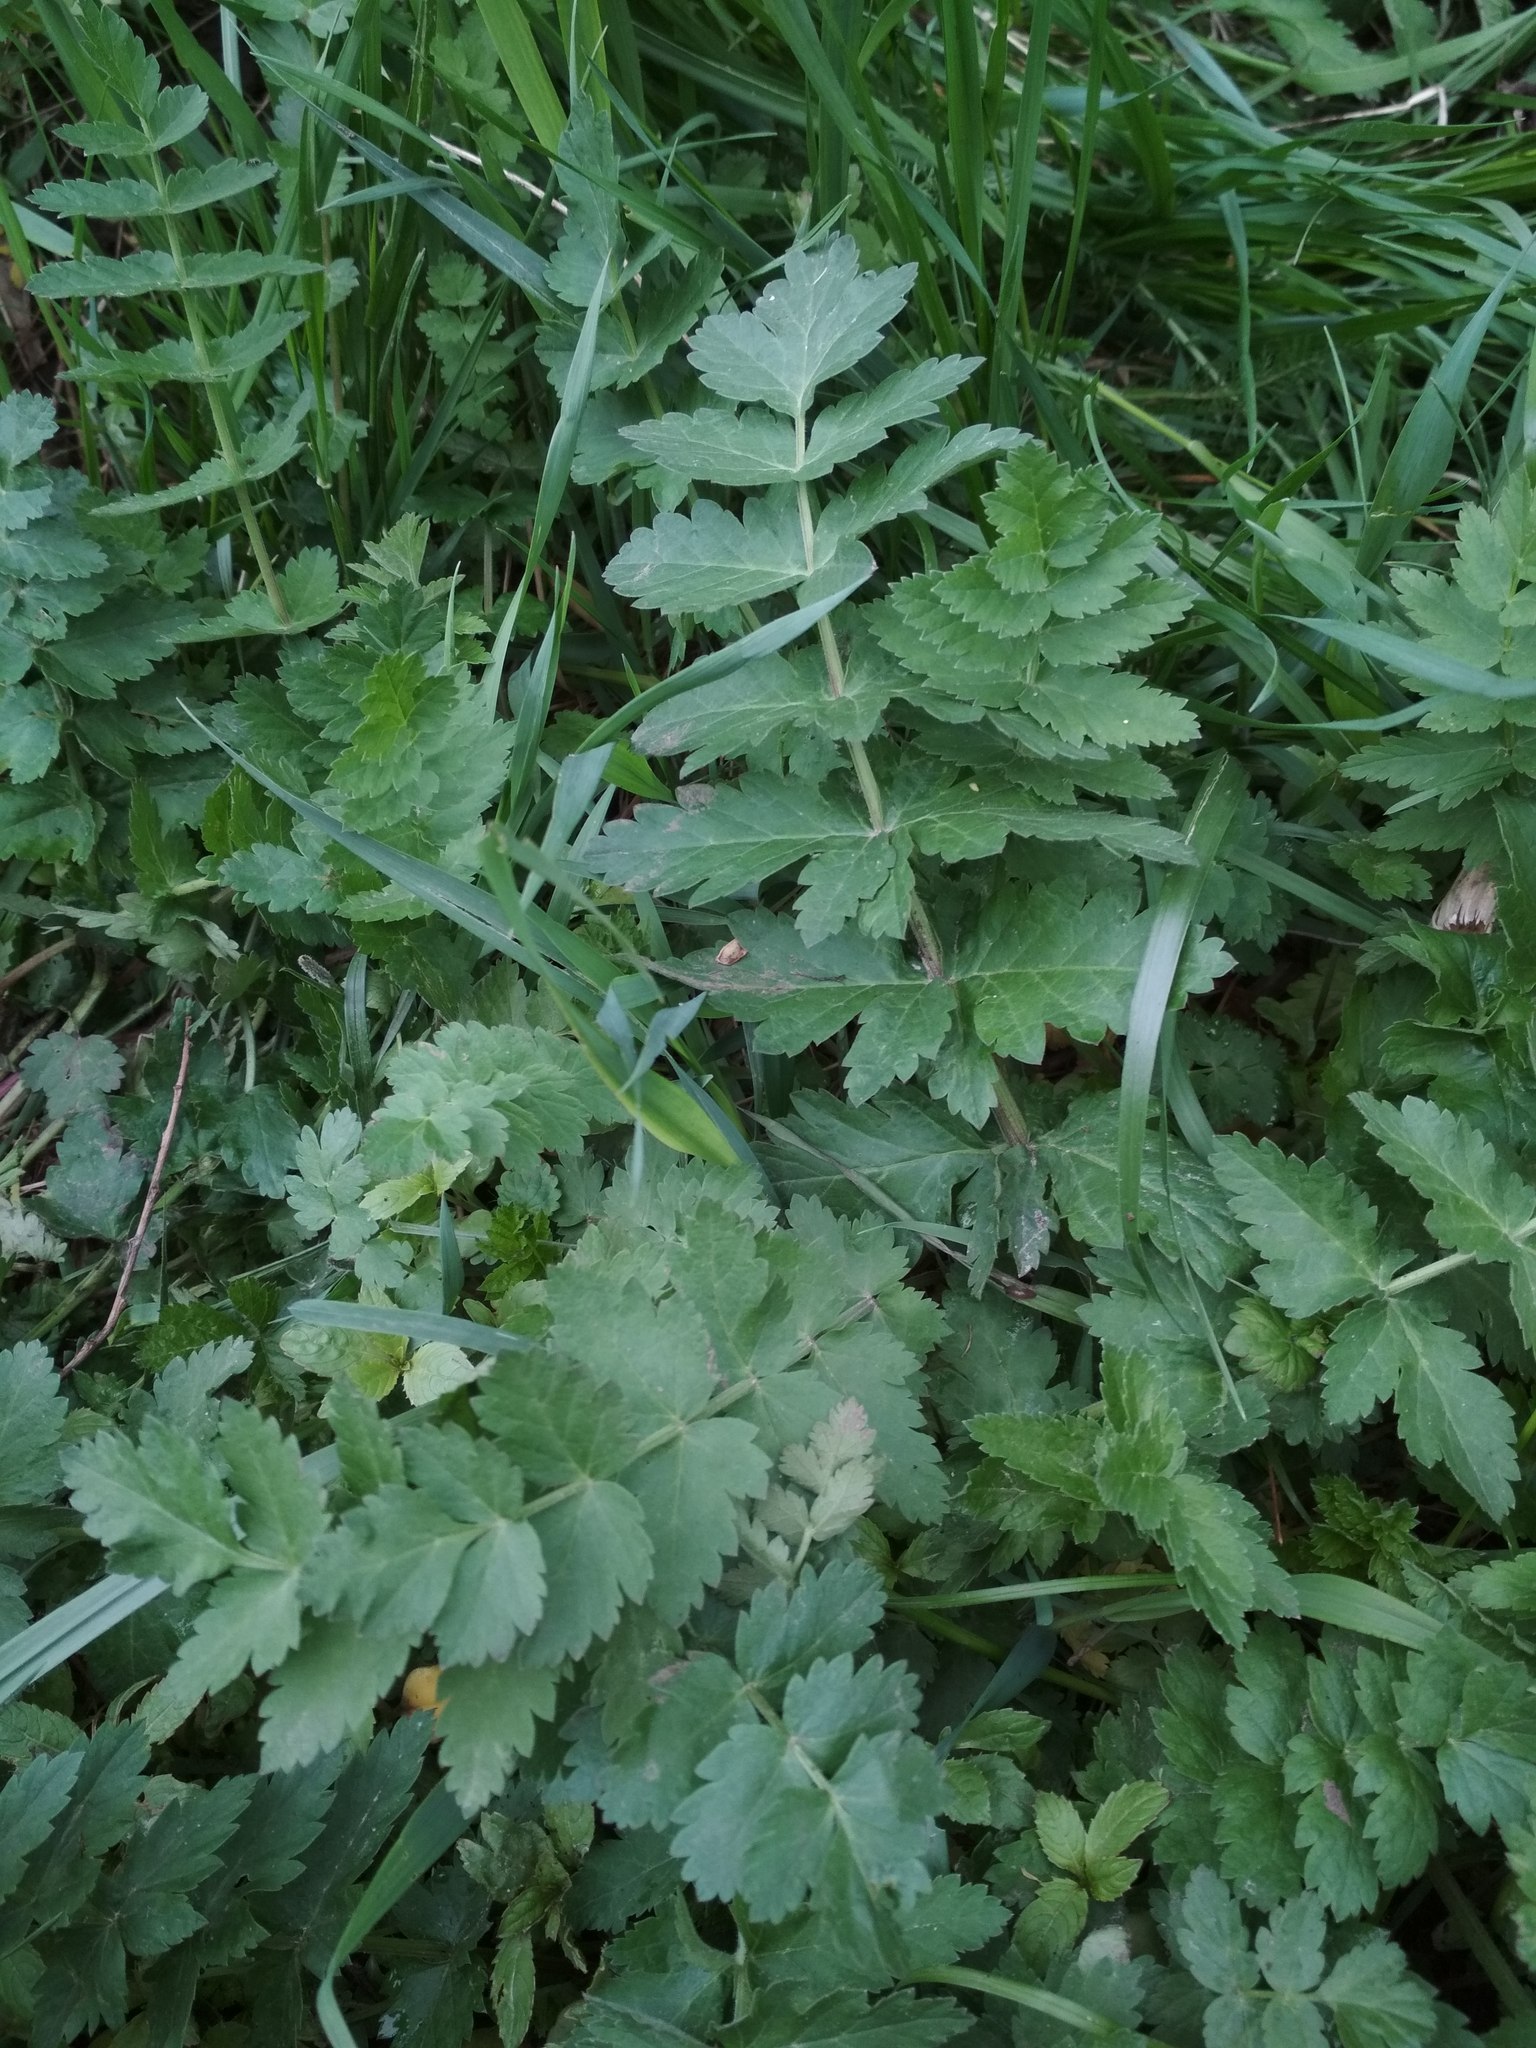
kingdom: Plantae
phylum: Tracheophyta
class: Magnoliopsida
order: Apiales
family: Apiaceae
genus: Pastinaca
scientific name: Pastinaca sativa
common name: Wild parsnip
